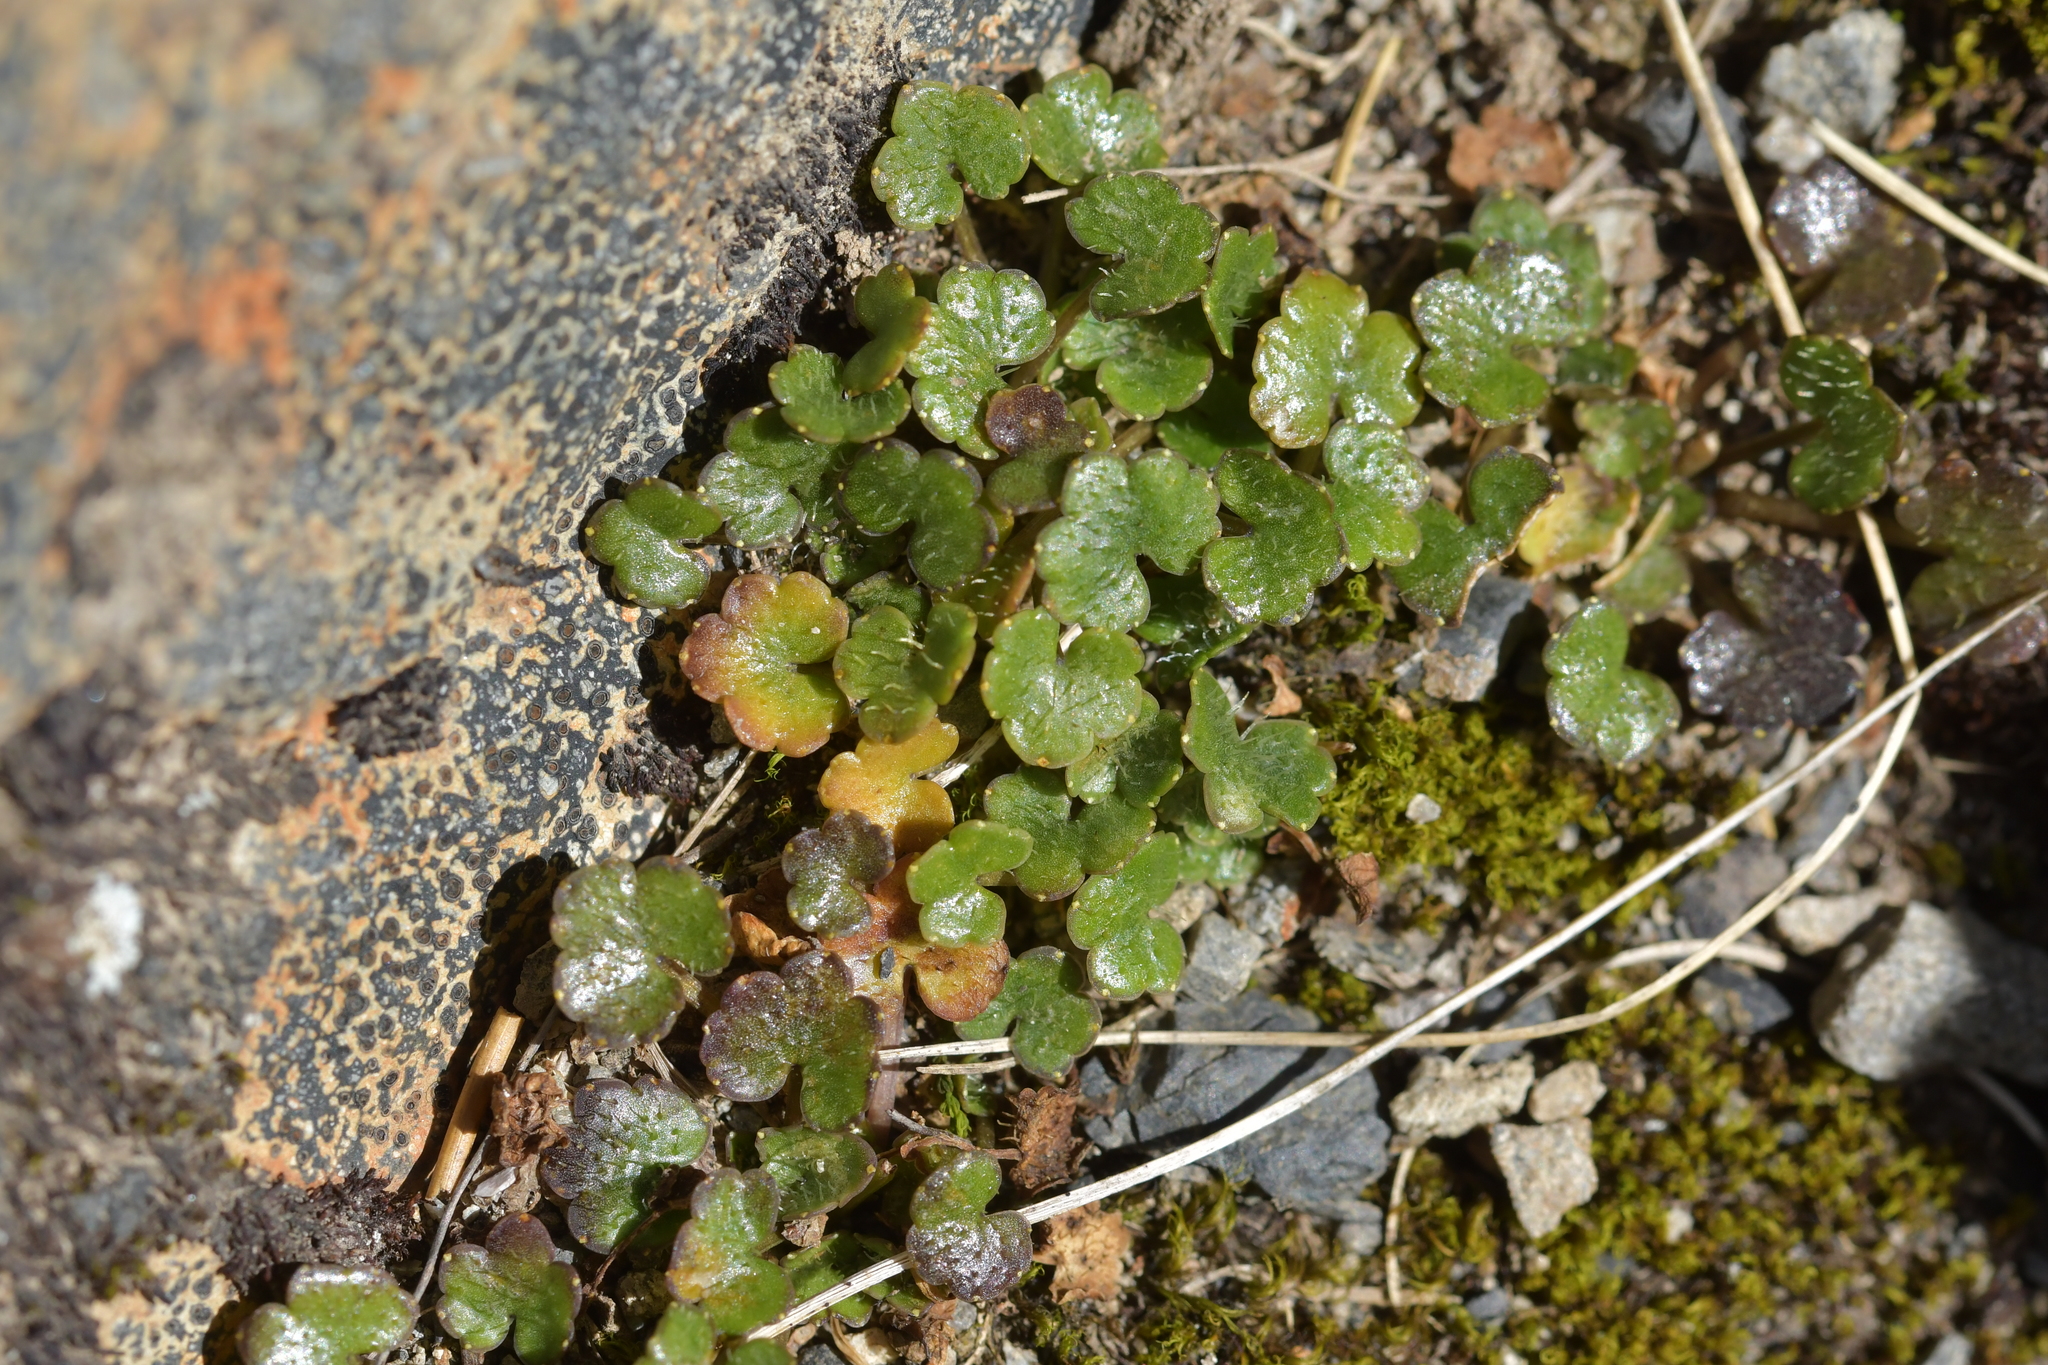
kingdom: Plantae
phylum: Tracheophyta
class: Magnoliopsida
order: Apiales
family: Apiaceae
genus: Azorella
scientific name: Azorella haastii
